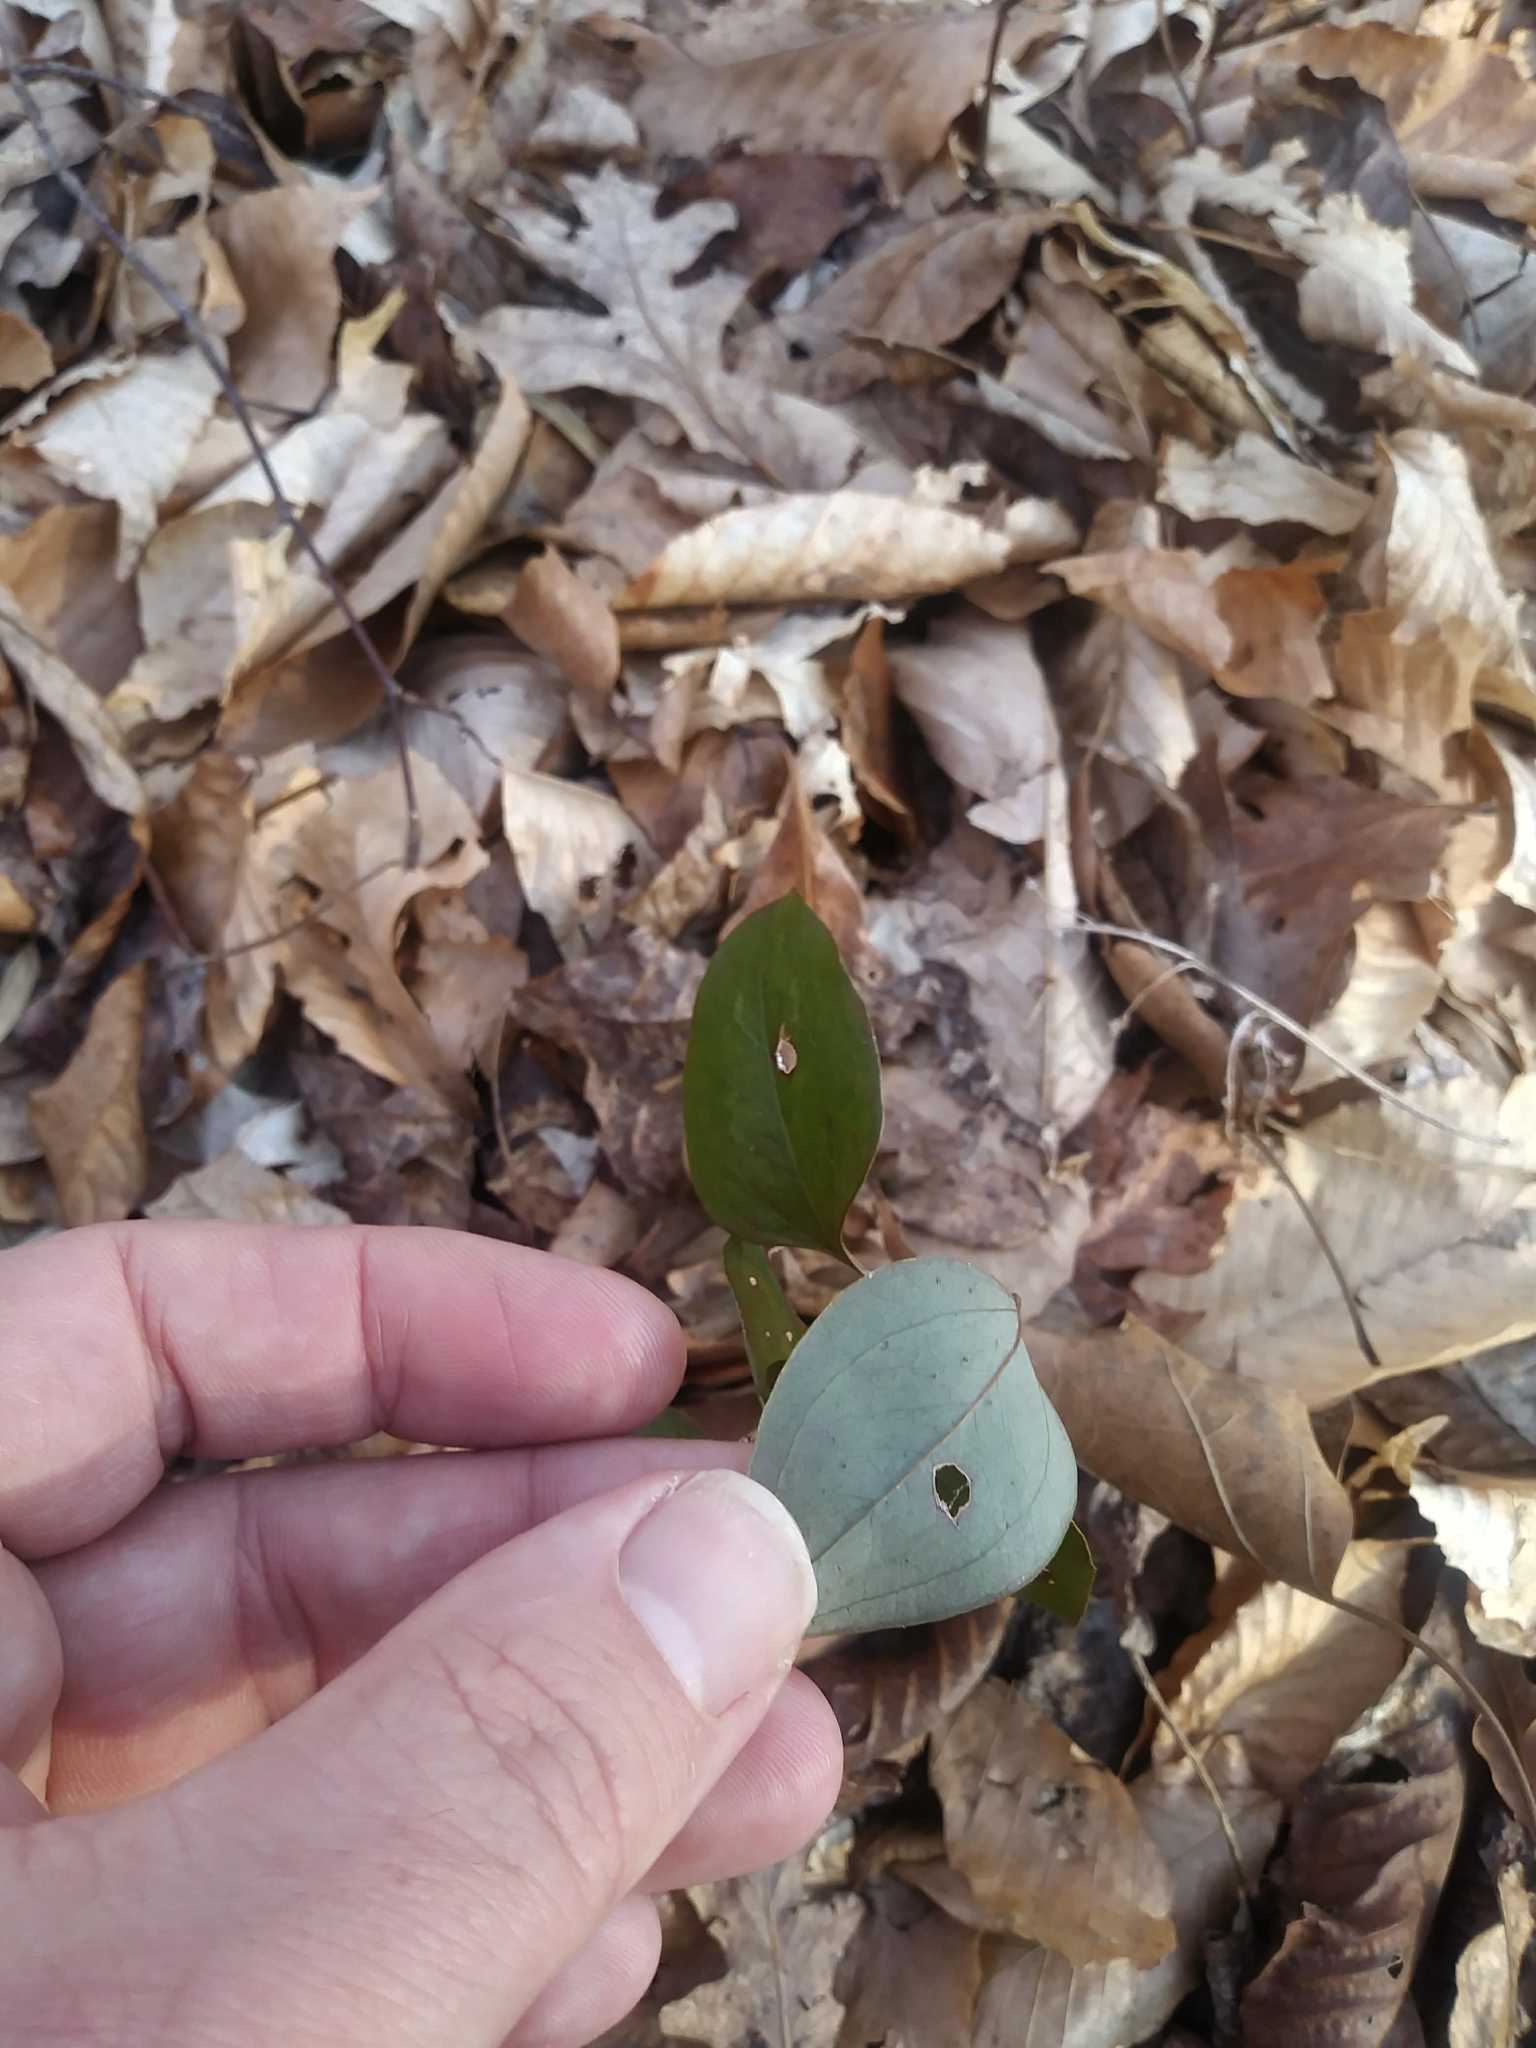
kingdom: Plantae
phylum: Tracheophyta
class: Liliopsida
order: Liliales
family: Smilacaceae
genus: Smilax
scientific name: Smilax glauca
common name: Cat greenbrier
